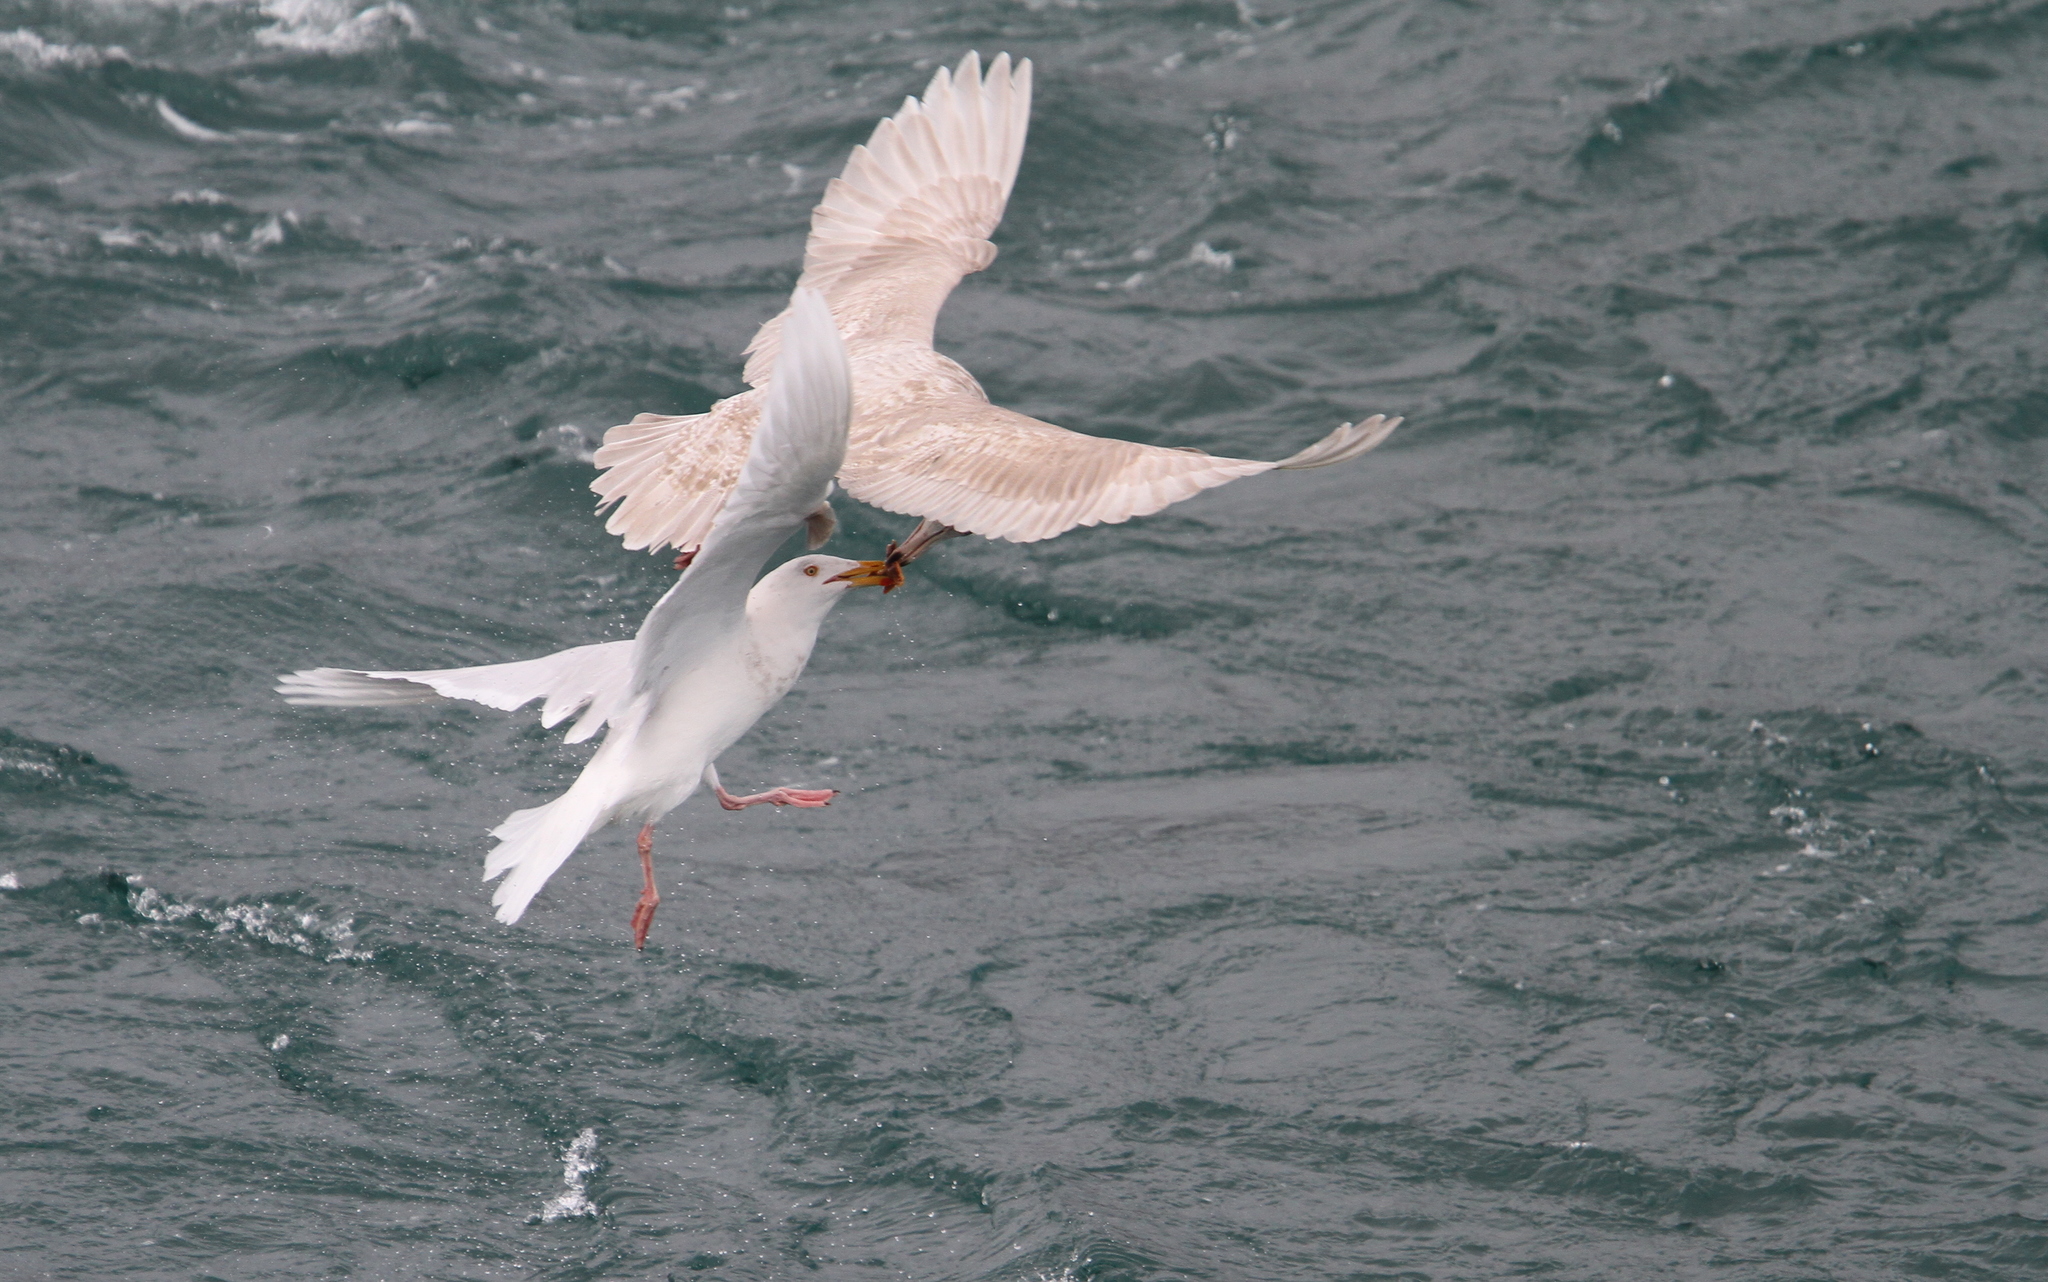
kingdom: Animalia
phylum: Chordata
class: Aves
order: Charadriiformes
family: Laridae
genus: Larus
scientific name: Larus hyperboreus
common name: Glaucous gull
